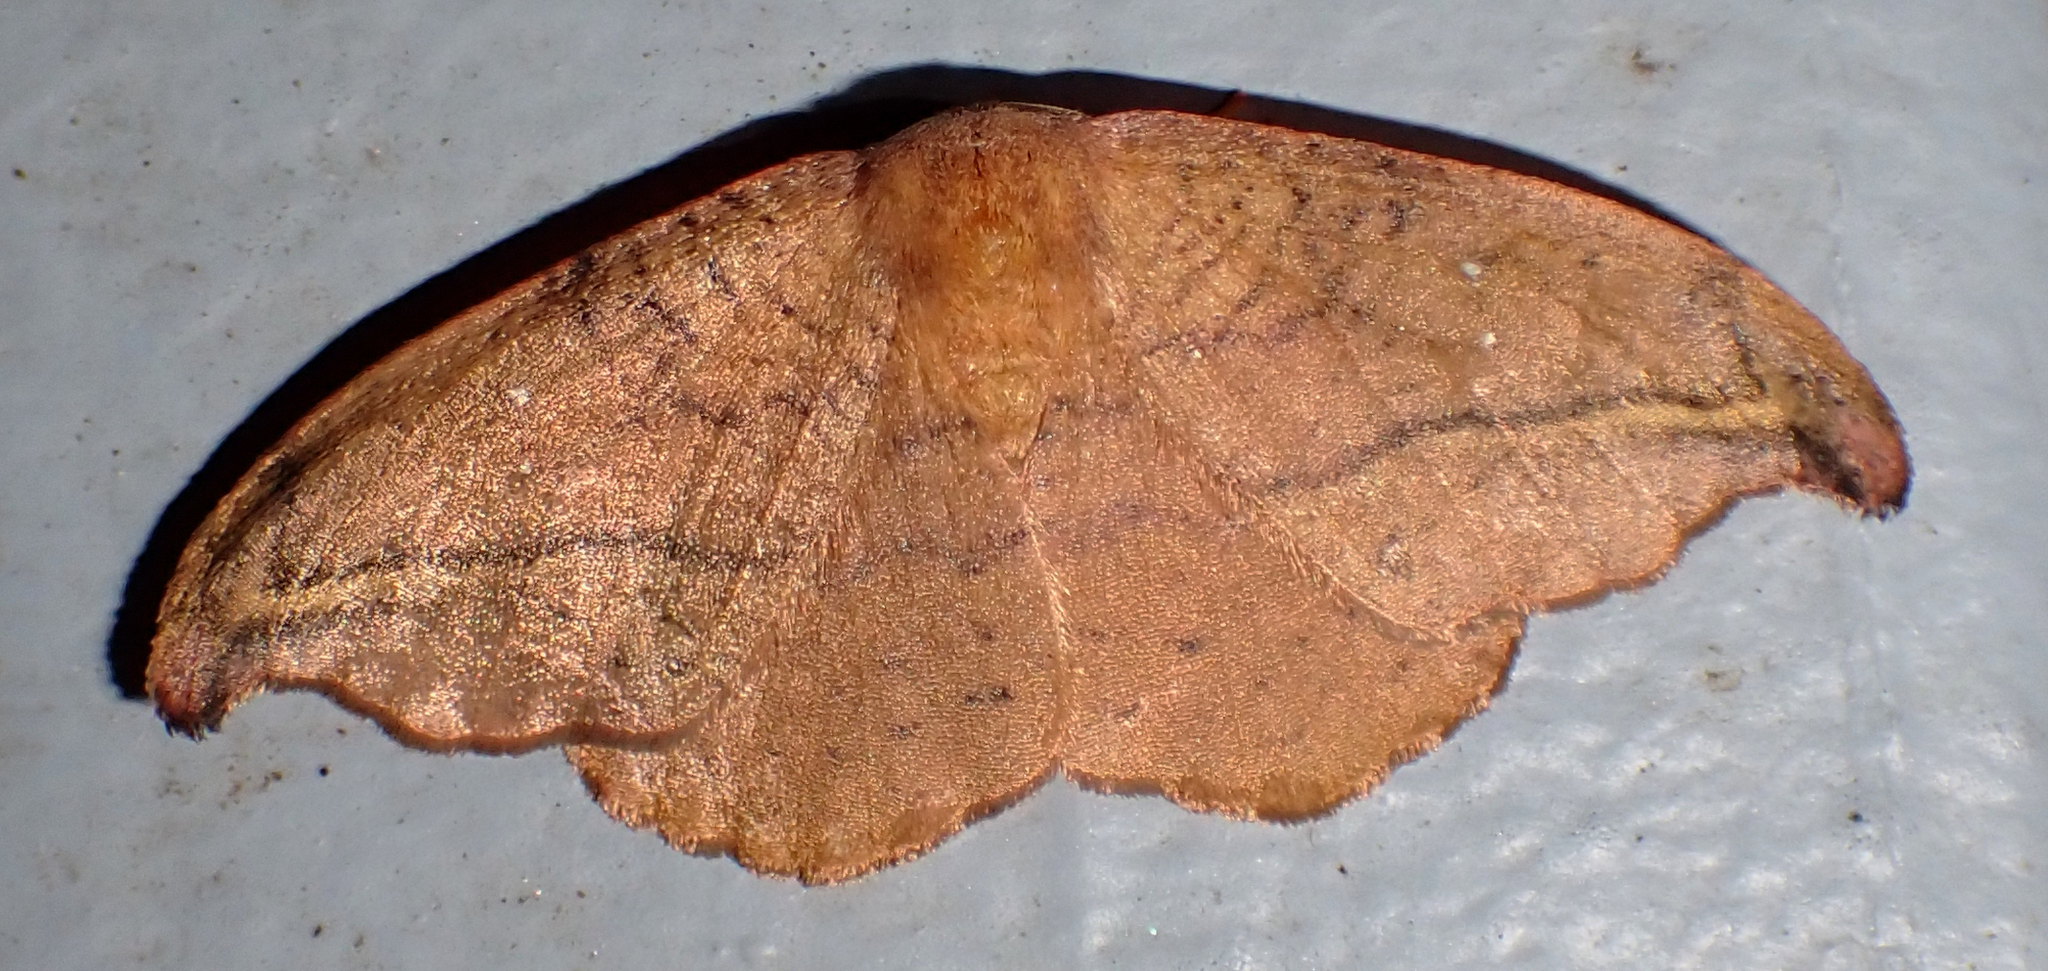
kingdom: Animalia
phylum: Arthropoda
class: Insecta
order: Lepidoptera
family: Drepanidae
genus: Oreta
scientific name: Oreta rosea
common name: Rose hooktip
